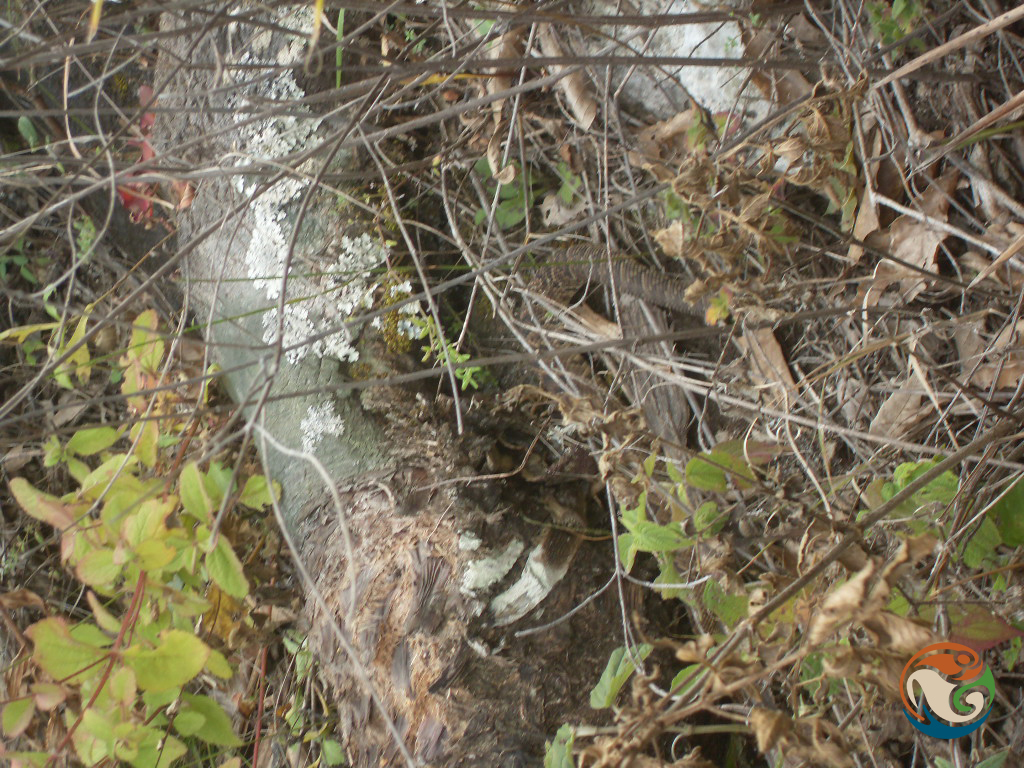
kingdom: Animalia
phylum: Chordata
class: Squamata
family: Viperidae
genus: Crotalus
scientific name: Crotalus culminatus
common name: Northwestern neotropical rattlesnake
